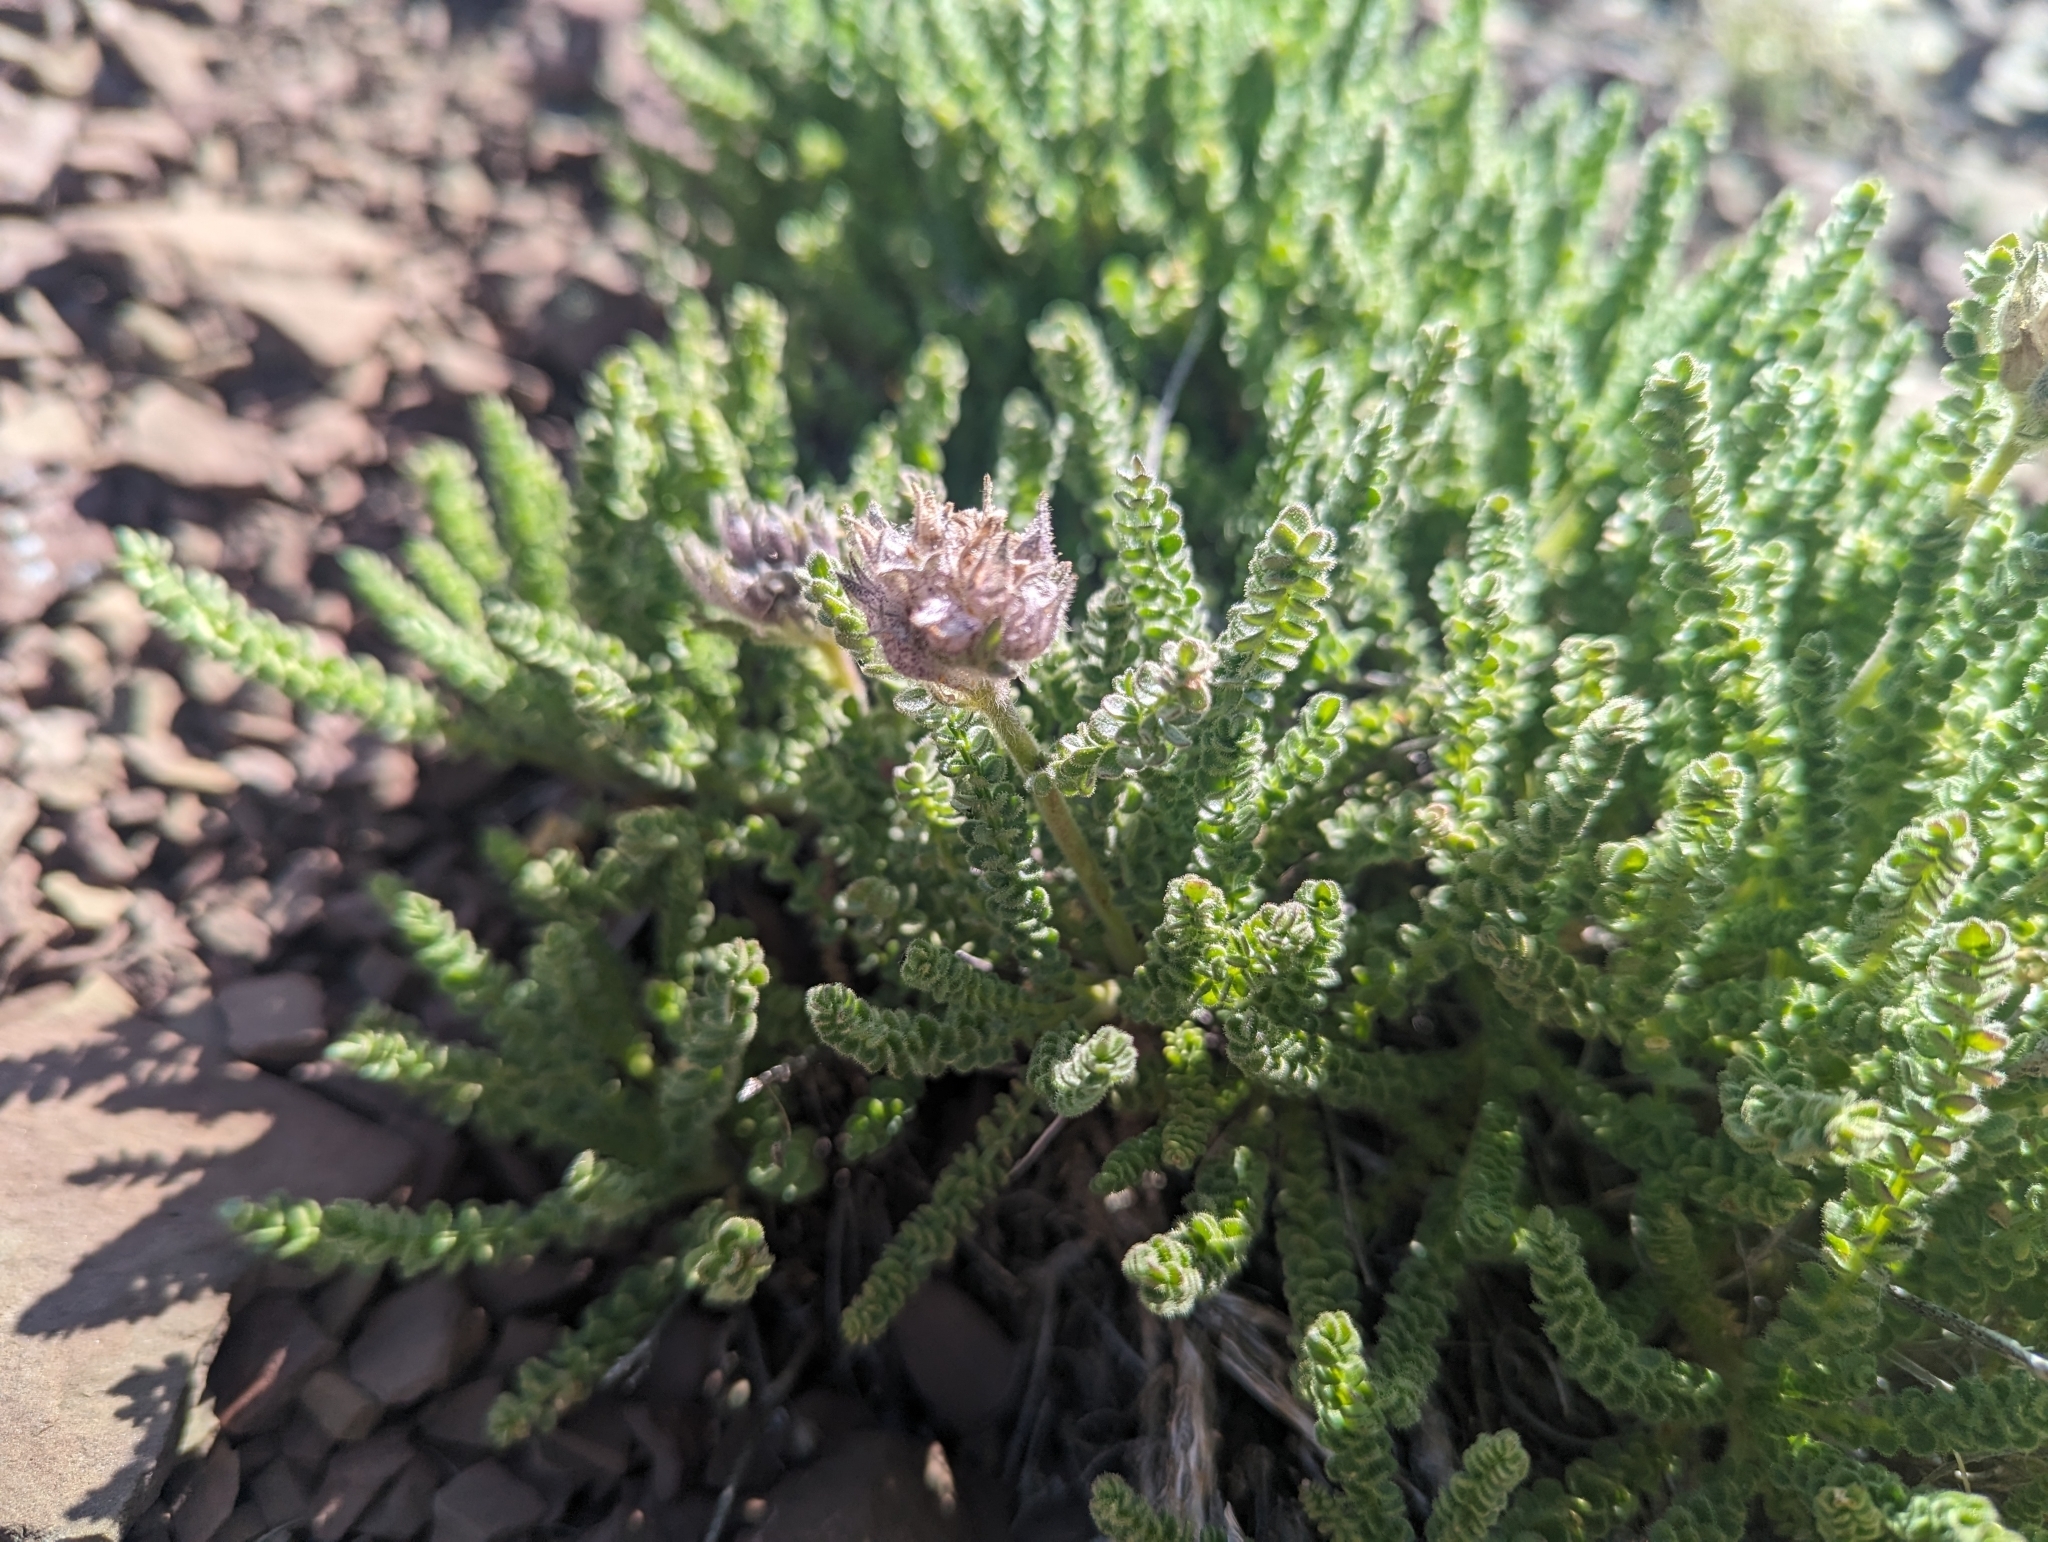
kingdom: Plantae
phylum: Tracheophyta
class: Magnoliopsida
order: Ericales
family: Polemoniaceae
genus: Polemonium
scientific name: Polemonium viscosum
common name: Skunk jacob's-ladder
